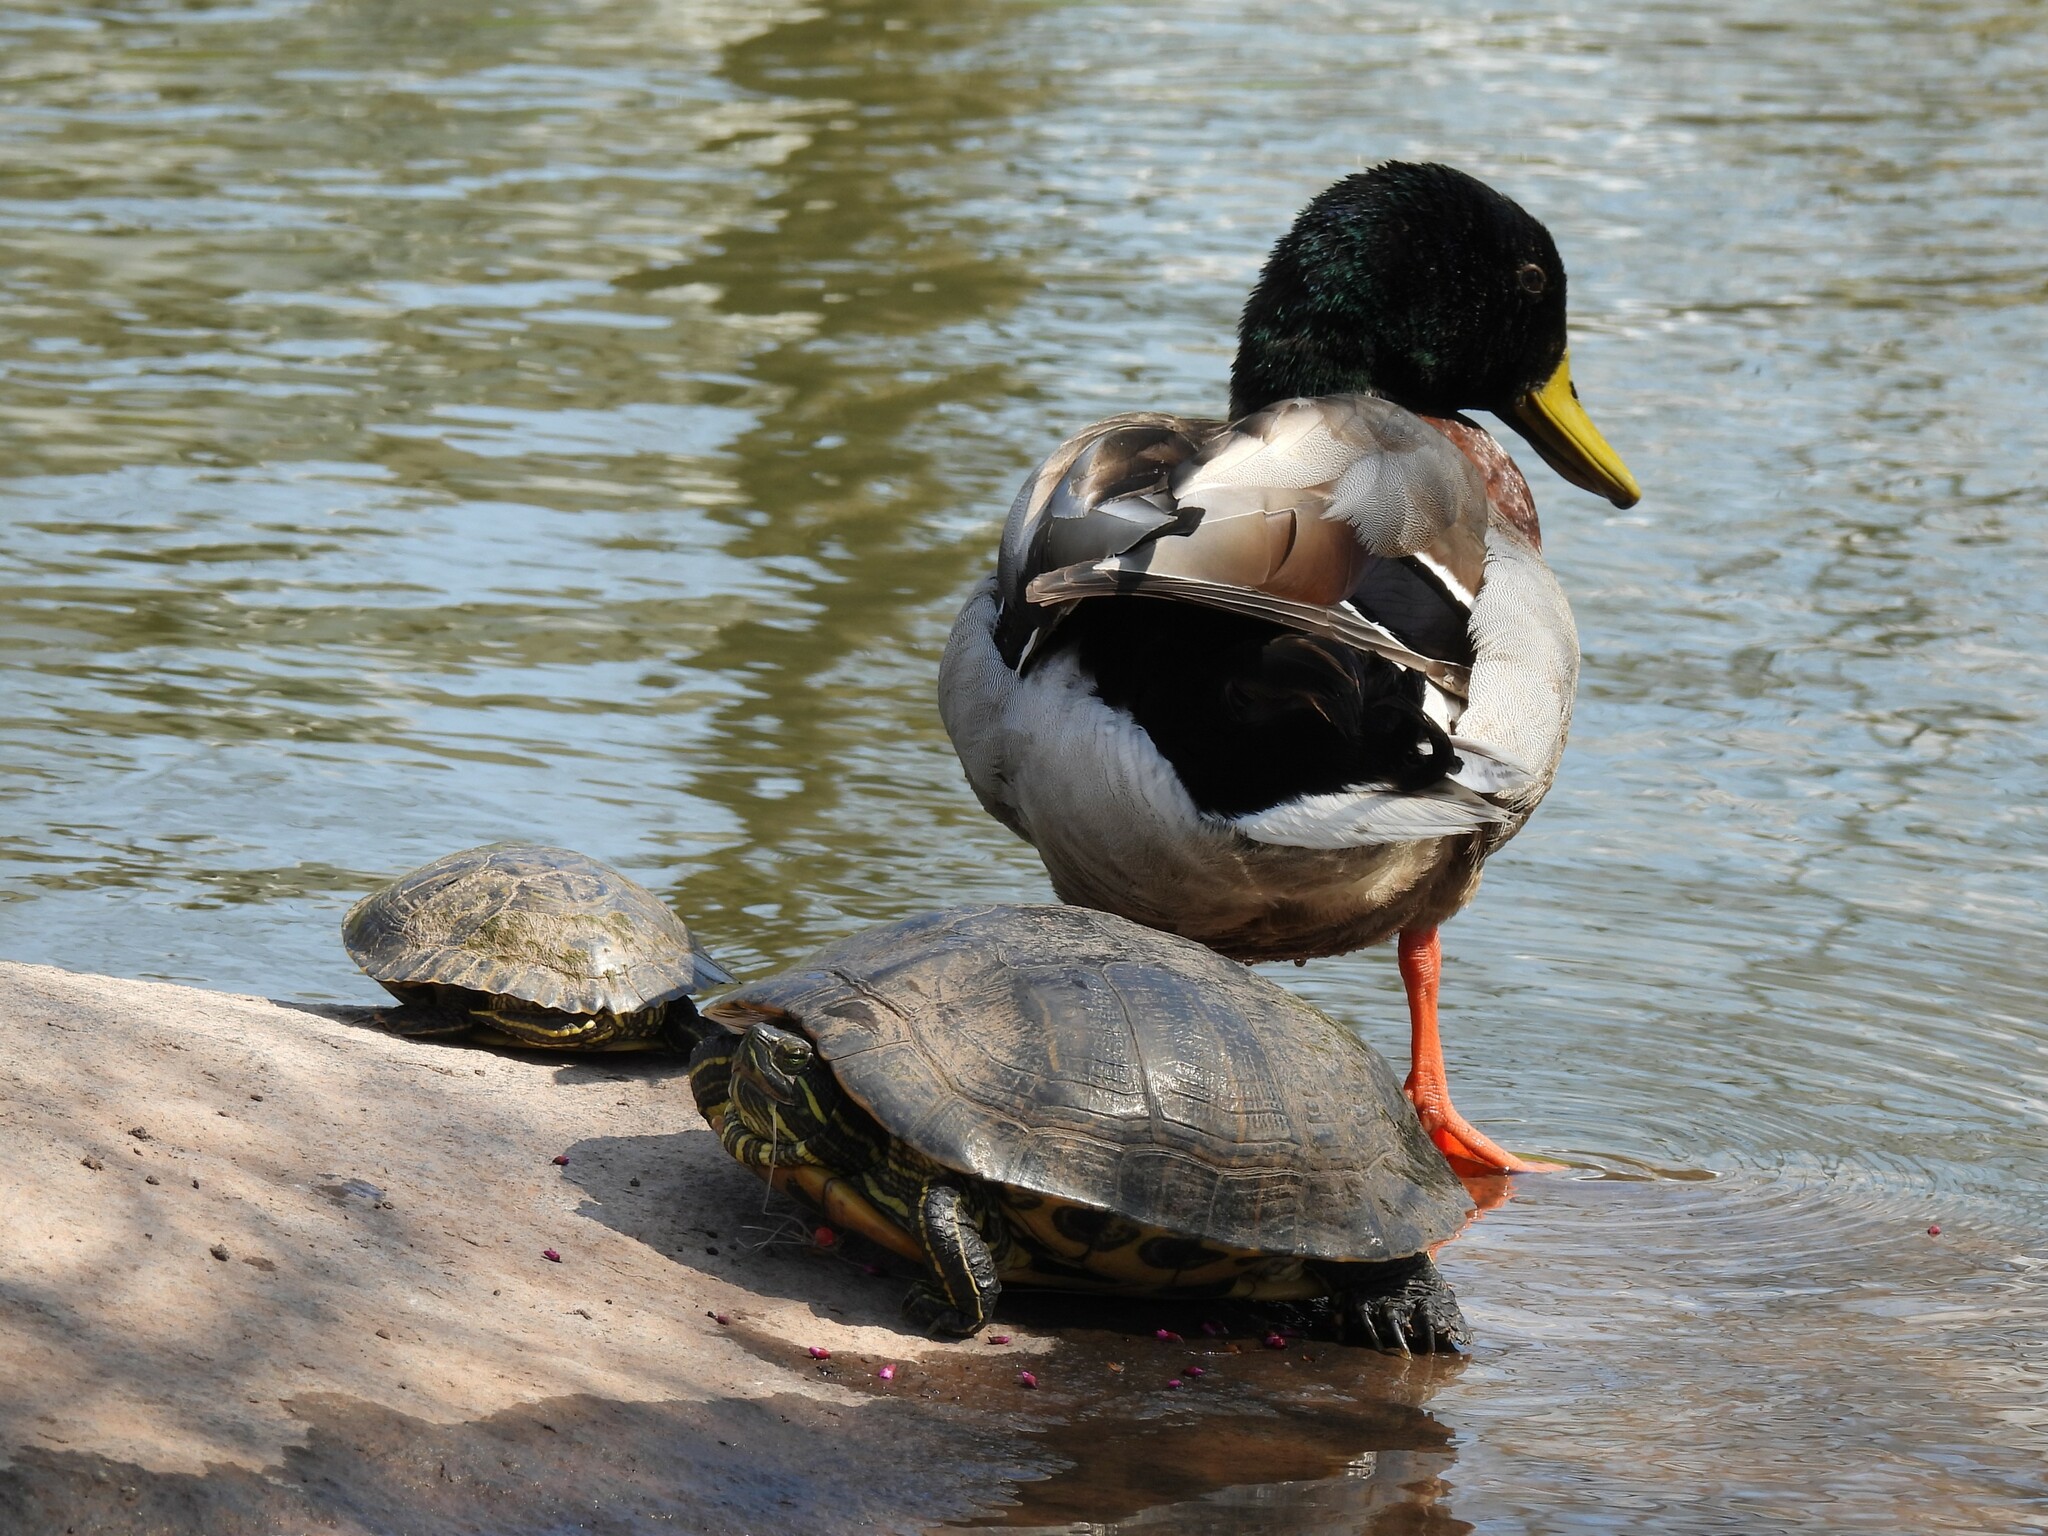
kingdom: Animalia
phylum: Chordata
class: Aves
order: Anseriformes
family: Anatidae
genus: Anas
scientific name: Anas platyrhynchos
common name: Mallard
